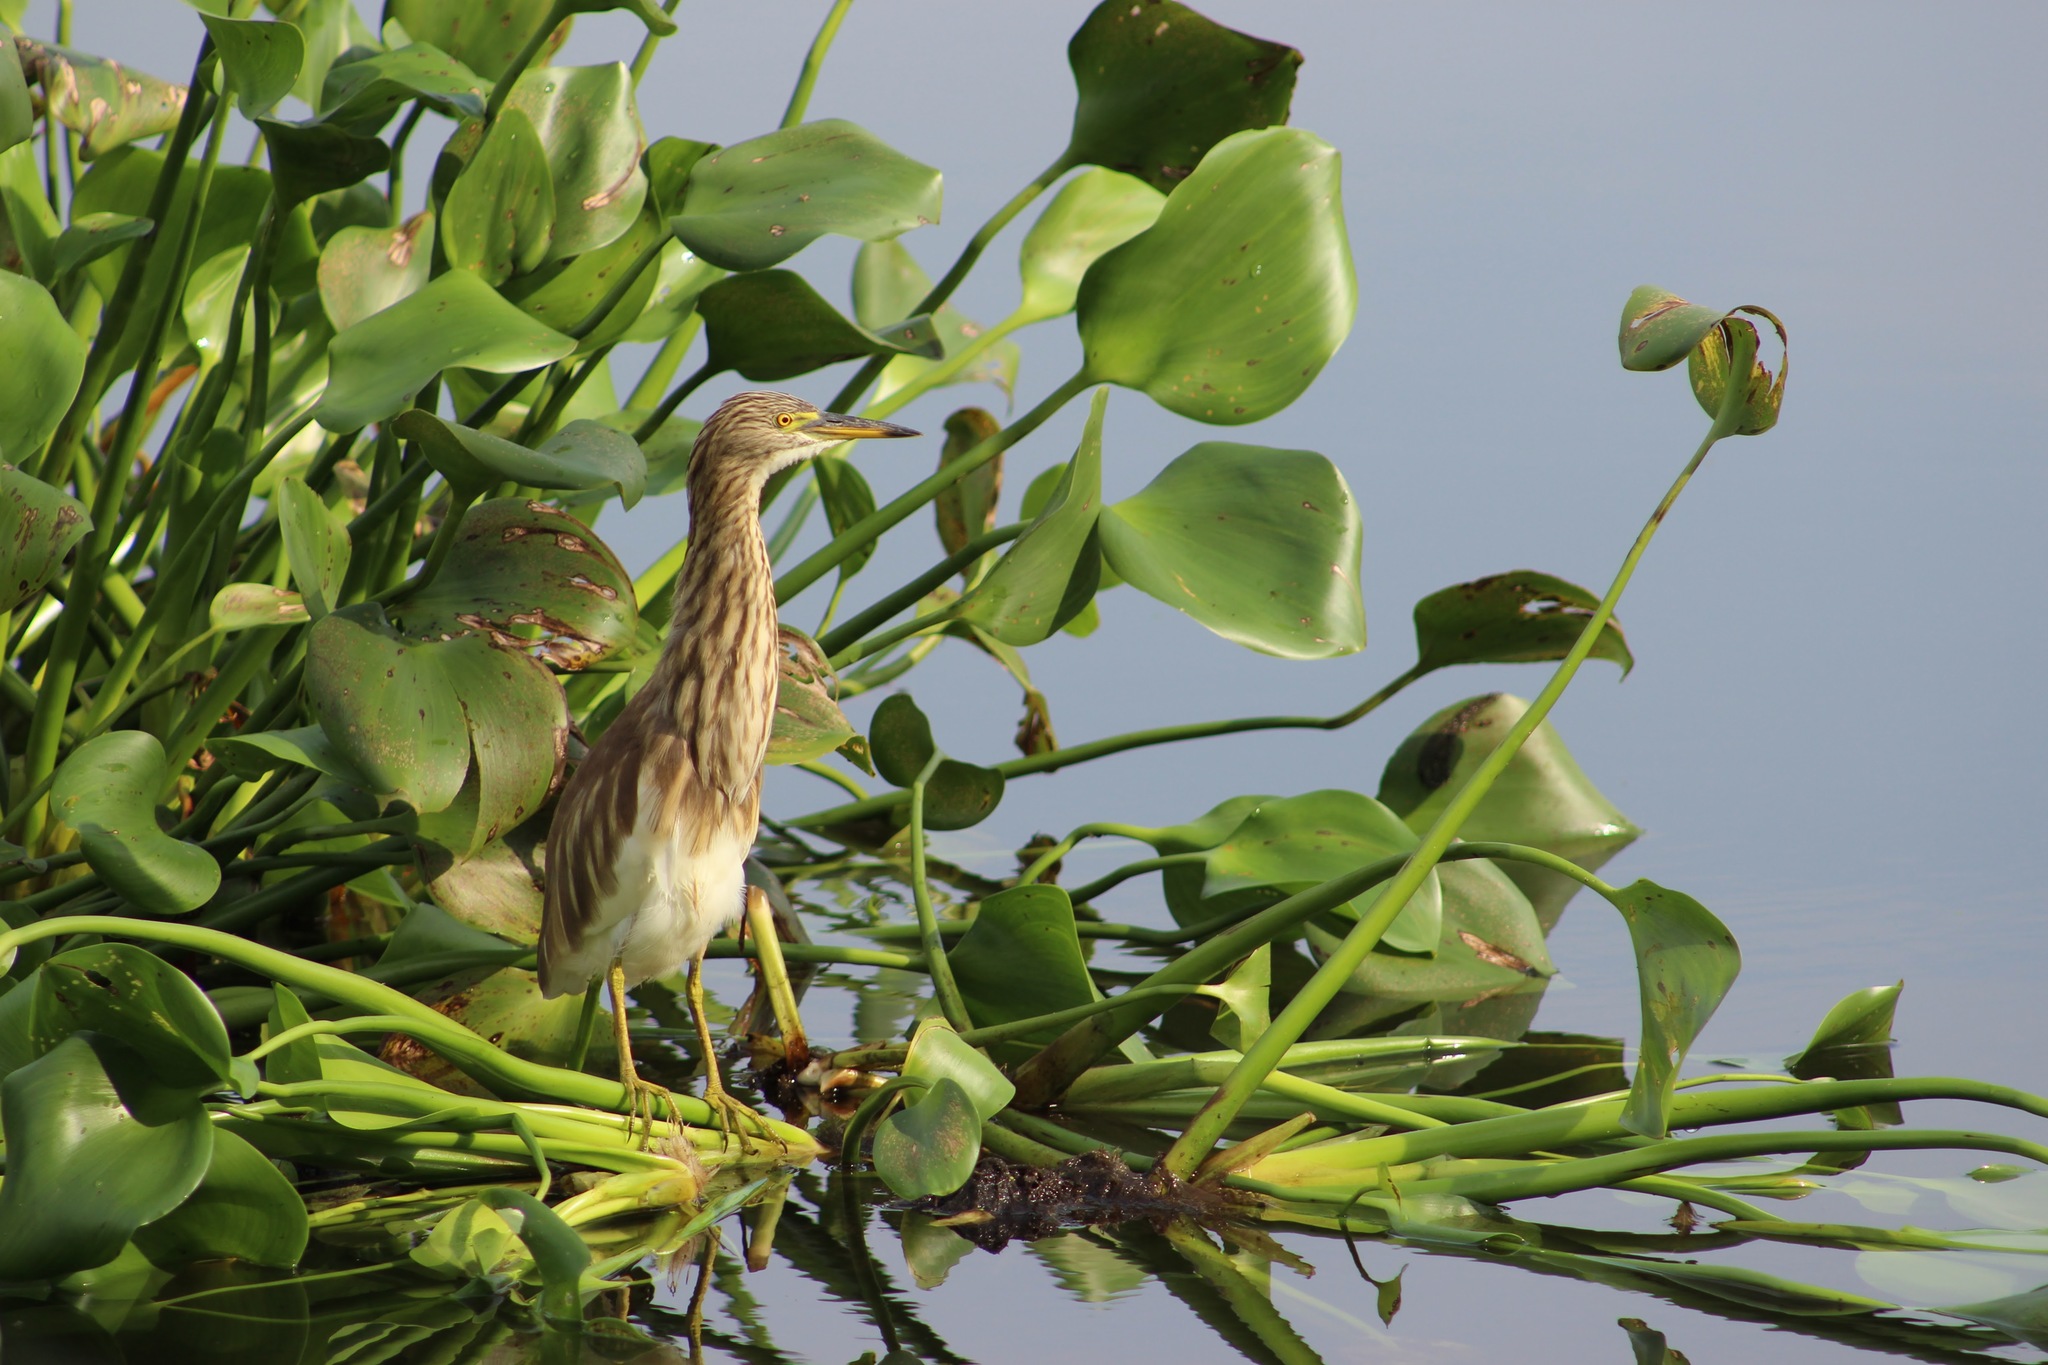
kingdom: Animalia
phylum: Chordata
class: Aves
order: Pelecaniformes
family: Ardeidae
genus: Ardeola
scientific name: Ardeola grayii
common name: Indian pond heron
